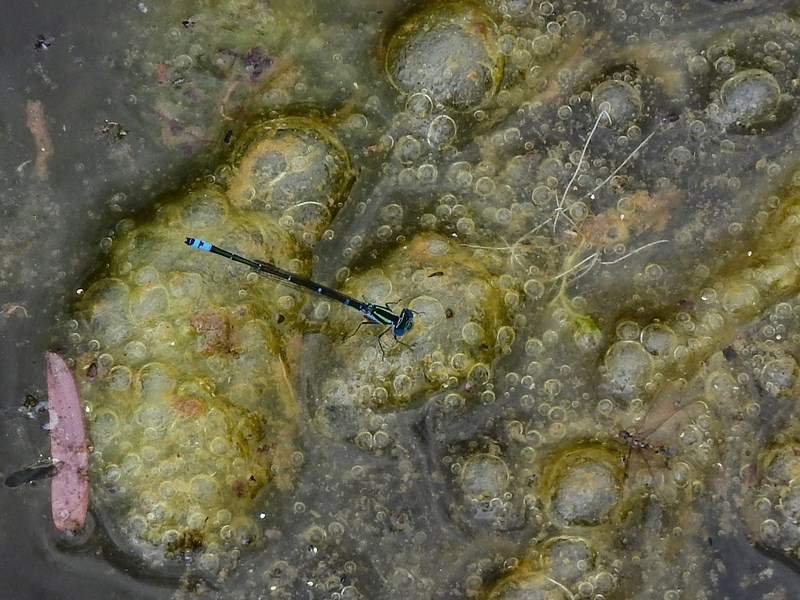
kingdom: Animalia
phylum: Arthropoda
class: Insecta
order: Odonata
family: Coenagrionidae
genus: Austroagrion
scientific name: Austroagrion watsoni
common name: Eastern billabongfly
